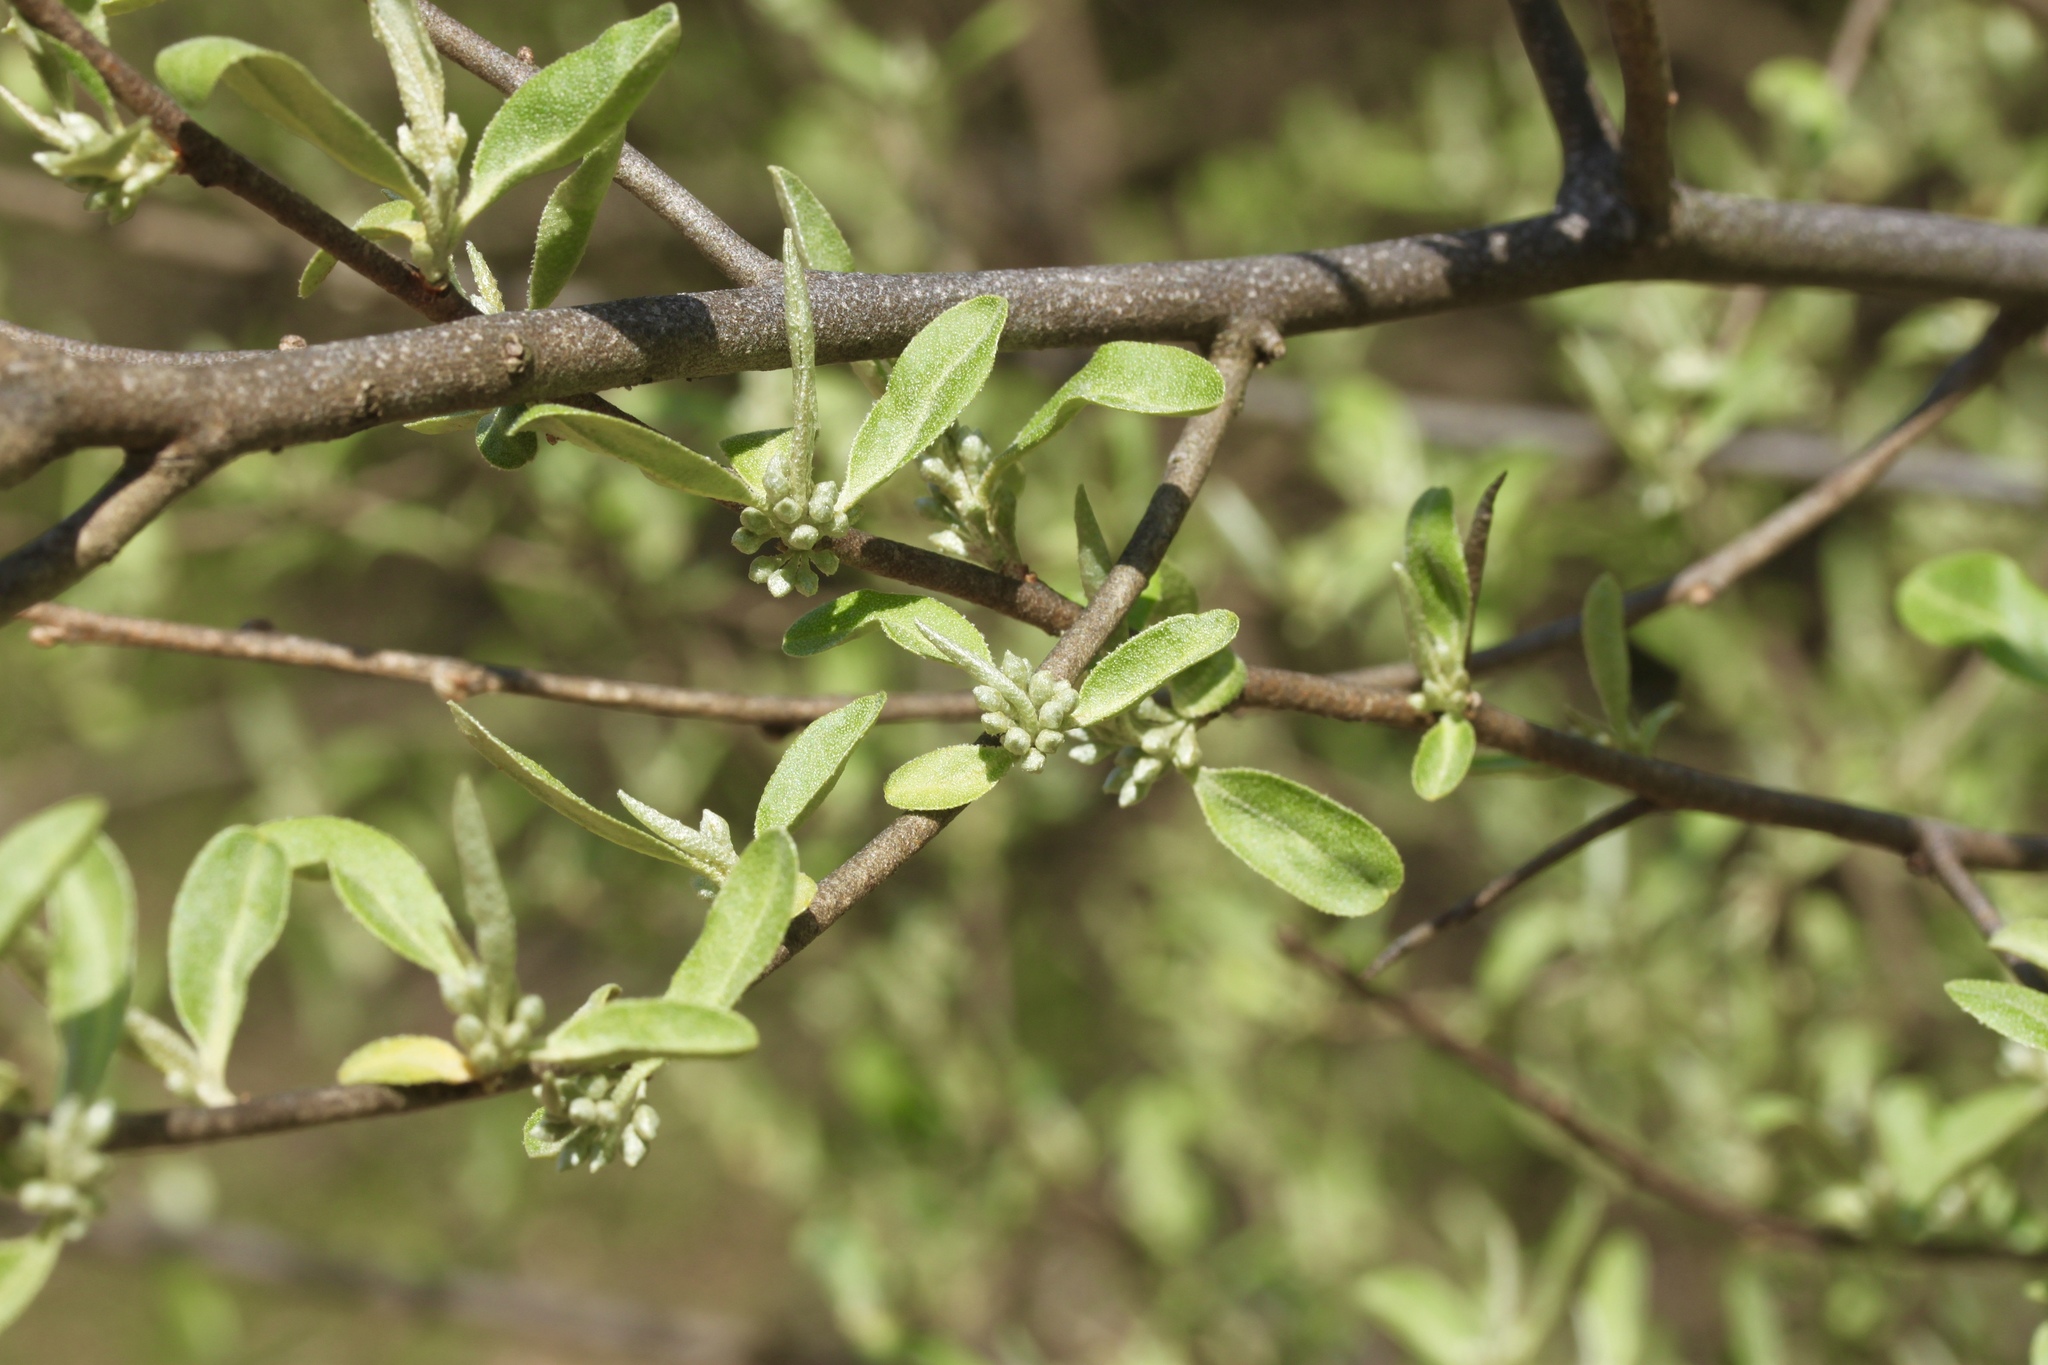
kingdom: Plantae
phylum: Tracheophyta
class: Magnoliopsida
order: Rosales
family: Elaeagnaceae
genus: Elaeagnus
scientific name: Elaeagnus umbellata
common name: Autumn olive
